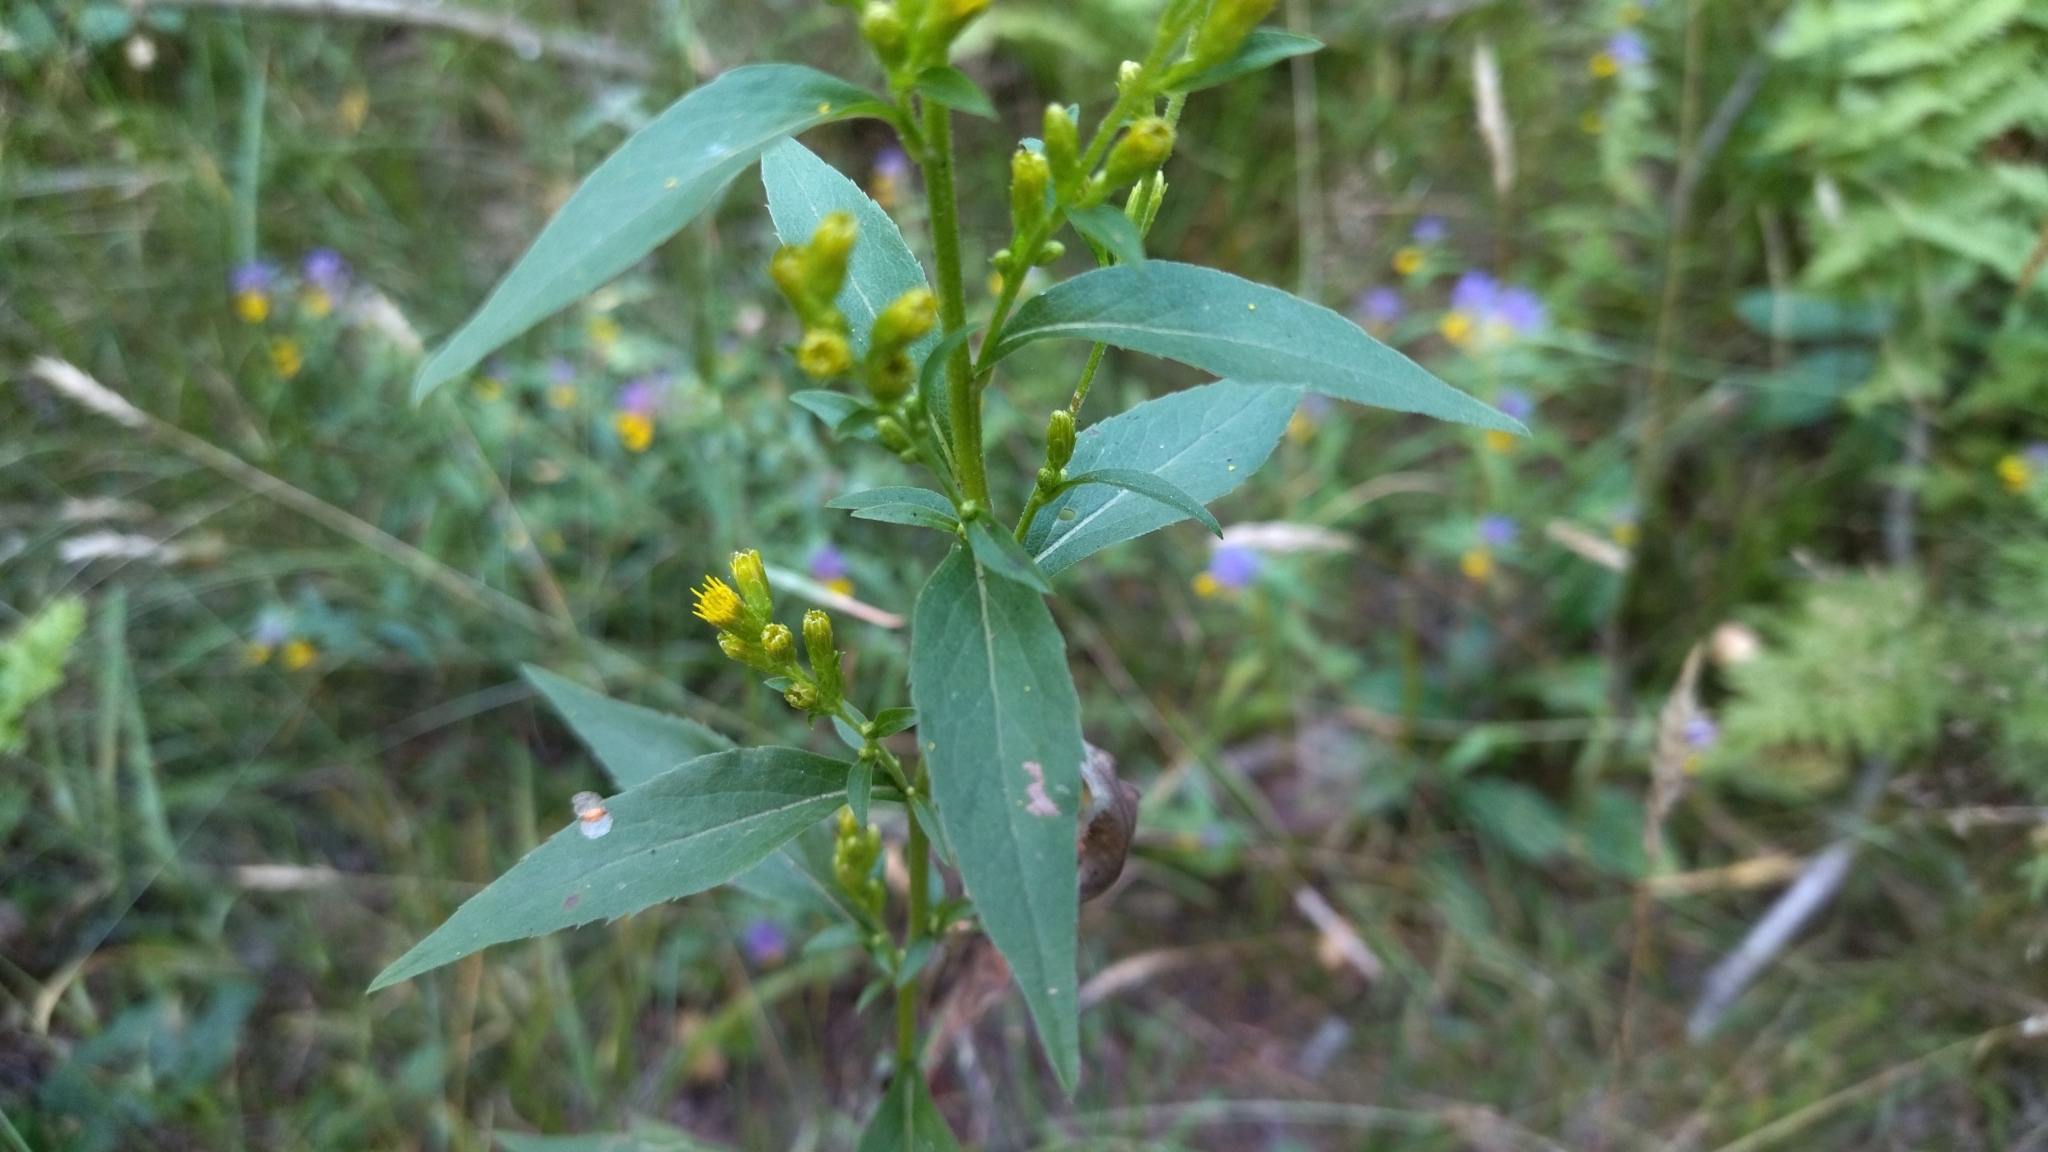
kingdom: Plantae
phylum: Tracheophyta
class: Magnoliopsida
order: Asterales
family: Asteraceae
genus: Solidago
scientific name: Solidago virgaurea
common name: Goldenrod
